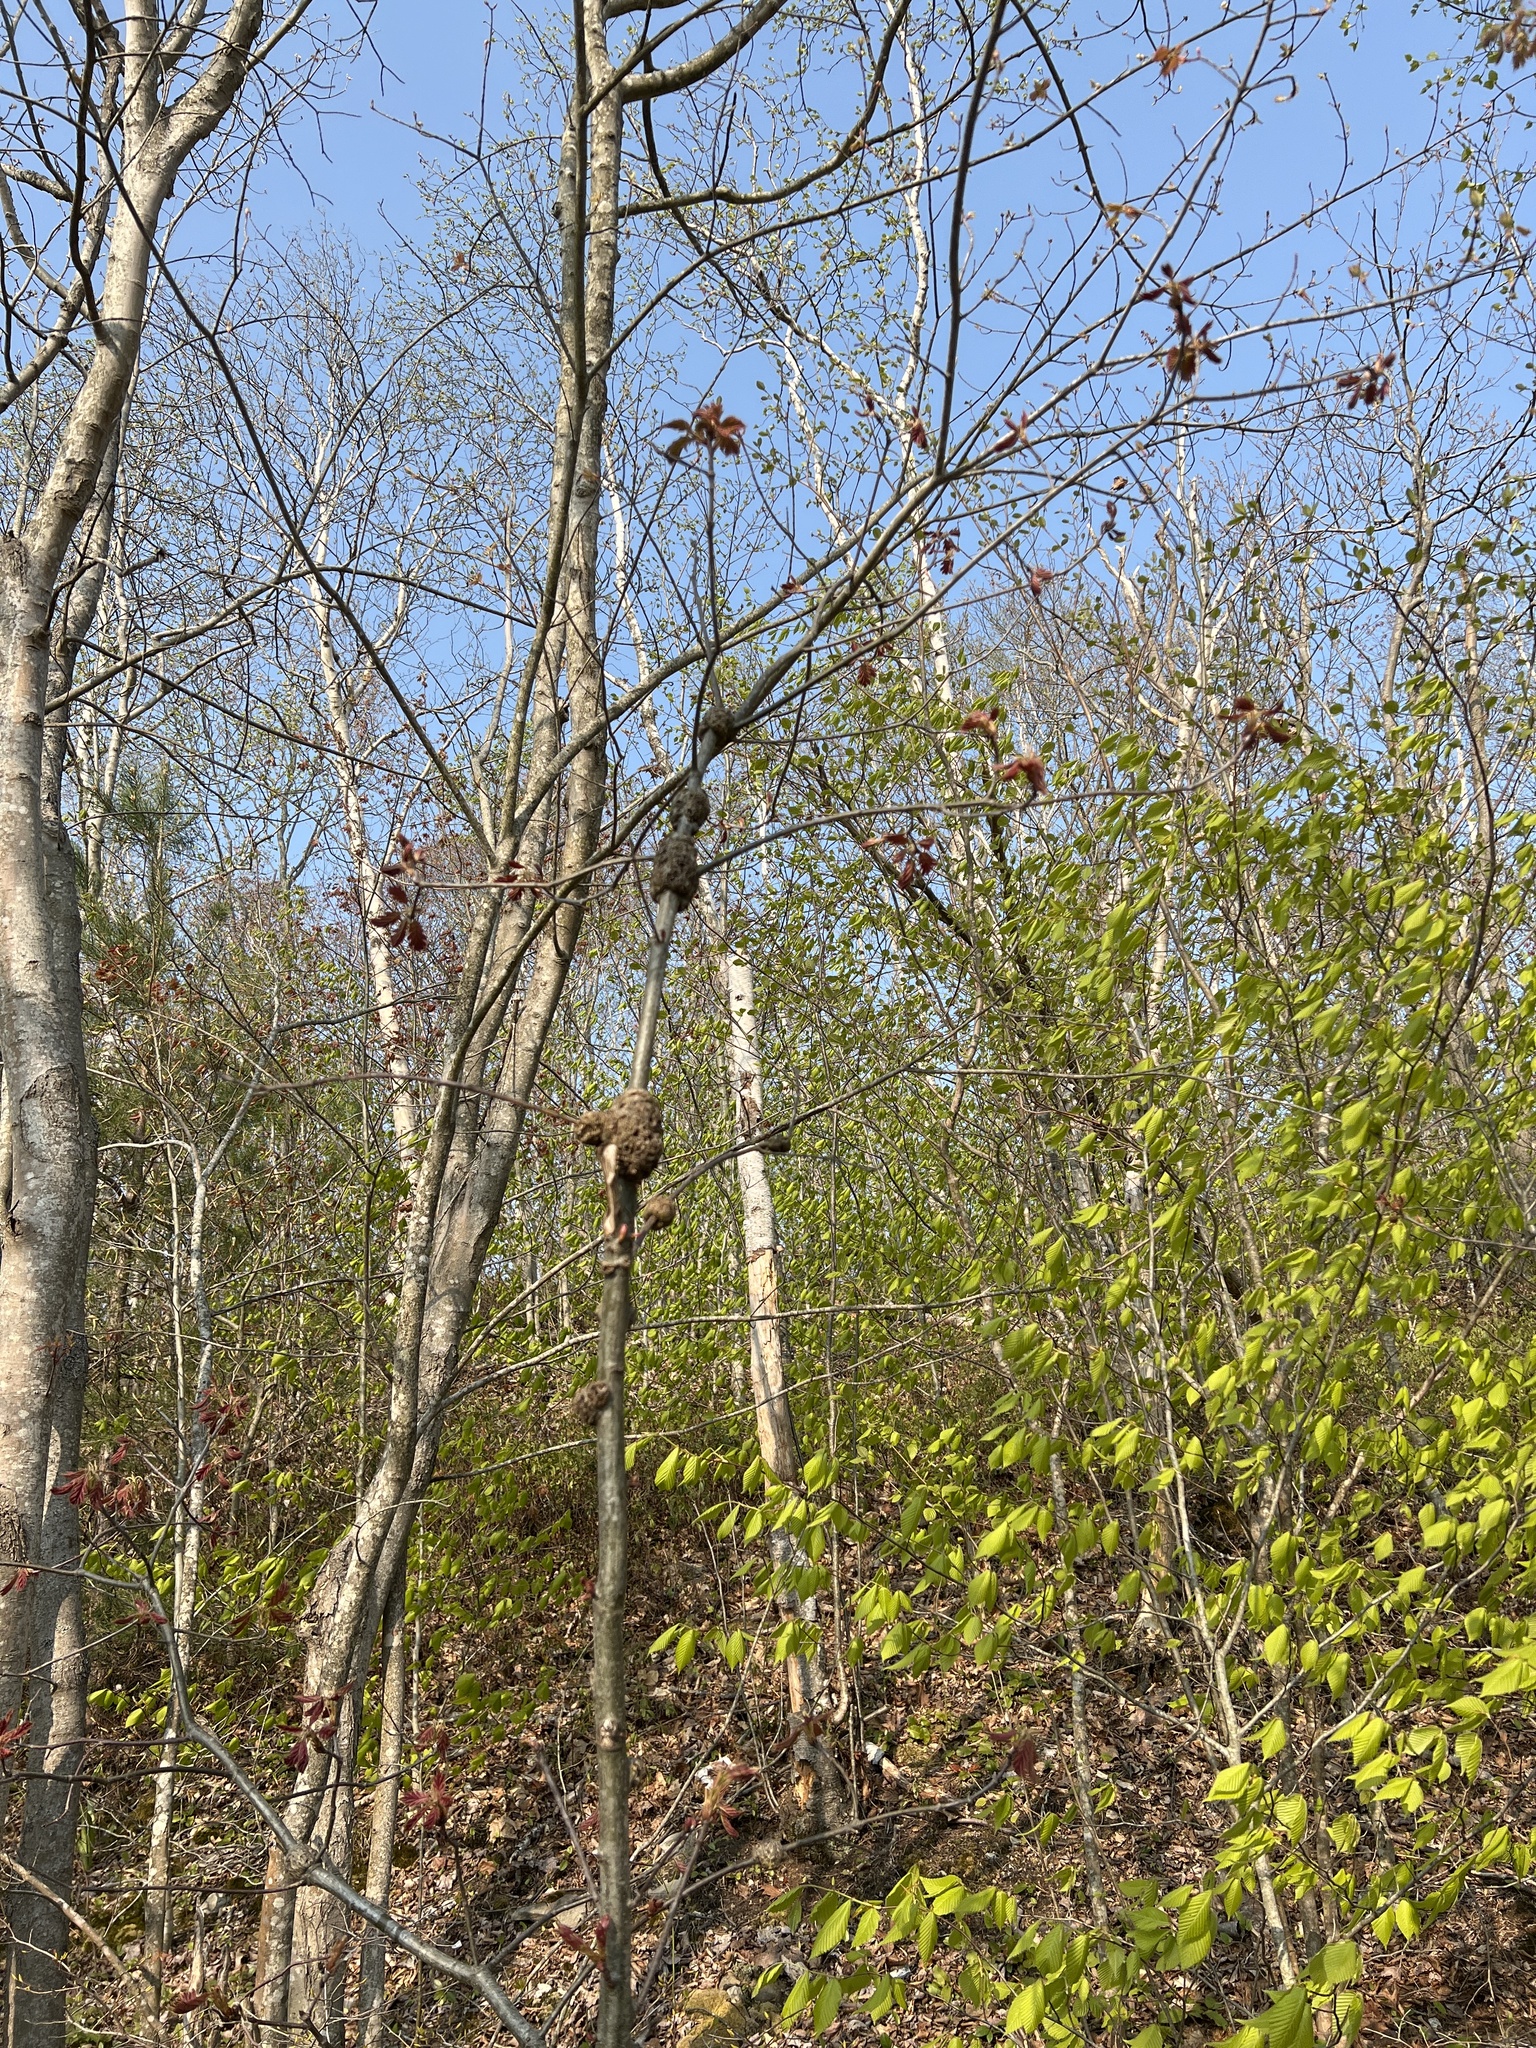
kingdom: Plantae
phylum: Tracheophyta
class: Magnoliopsida
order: Fagales
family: Fagaceae
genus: Quercus
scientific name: Quercus rubra
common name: Red oak
